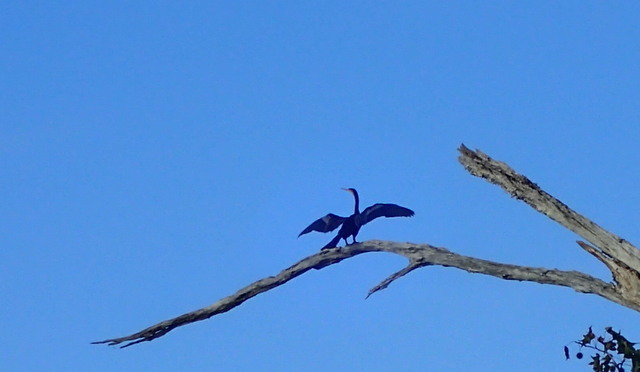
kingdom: Animalia
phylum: Chordata
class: Aves
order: Suliformes
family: Anhingidae
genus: Anhinga
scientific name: Anhinga anhinga
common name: Anhinga
